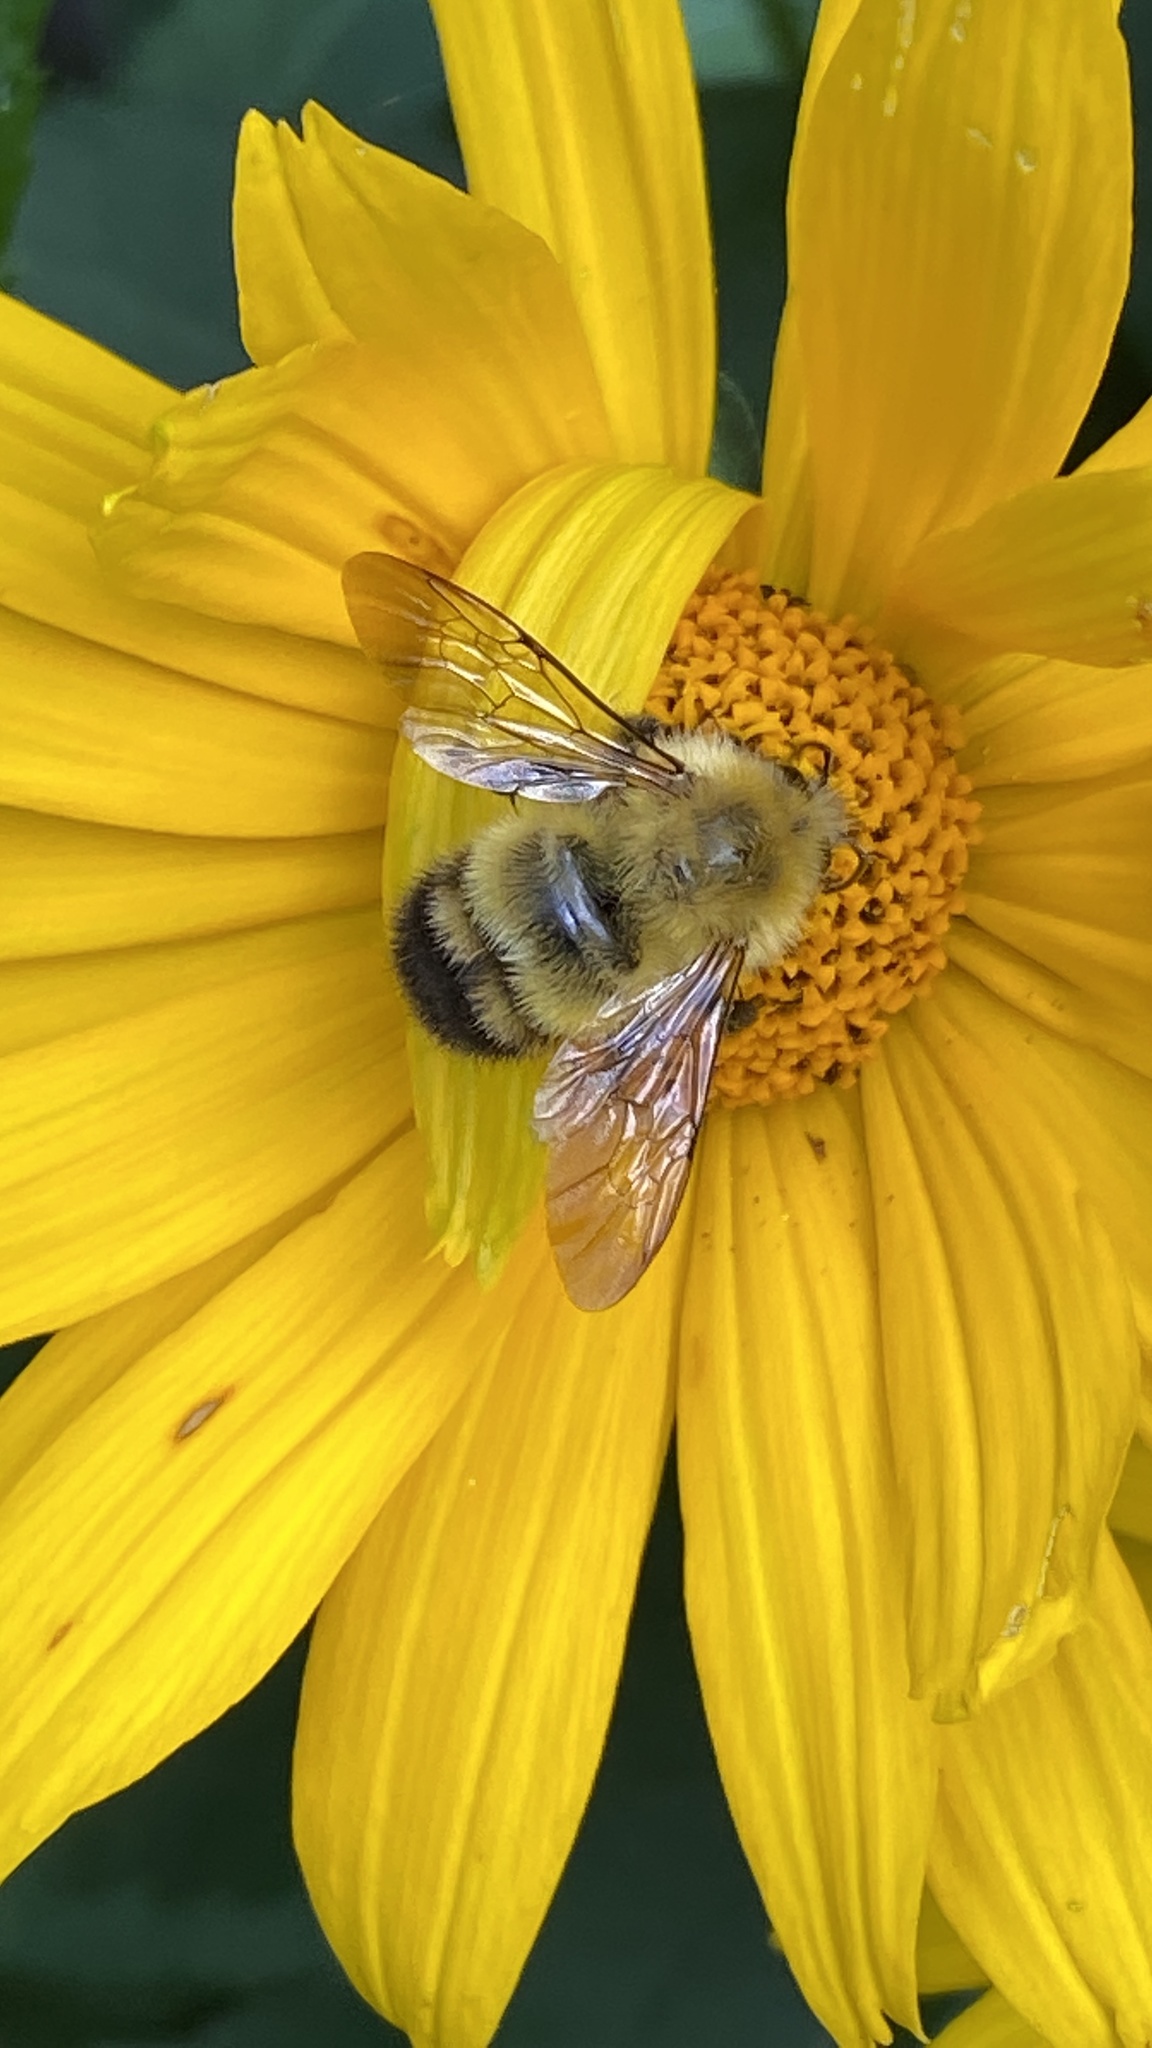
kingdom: Animalia
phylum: Arthropoda
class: Insecta
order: Hymenoptera
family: Apidae
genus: Bombus
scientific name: Bombus perplexus
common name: Confusing bumble bee
